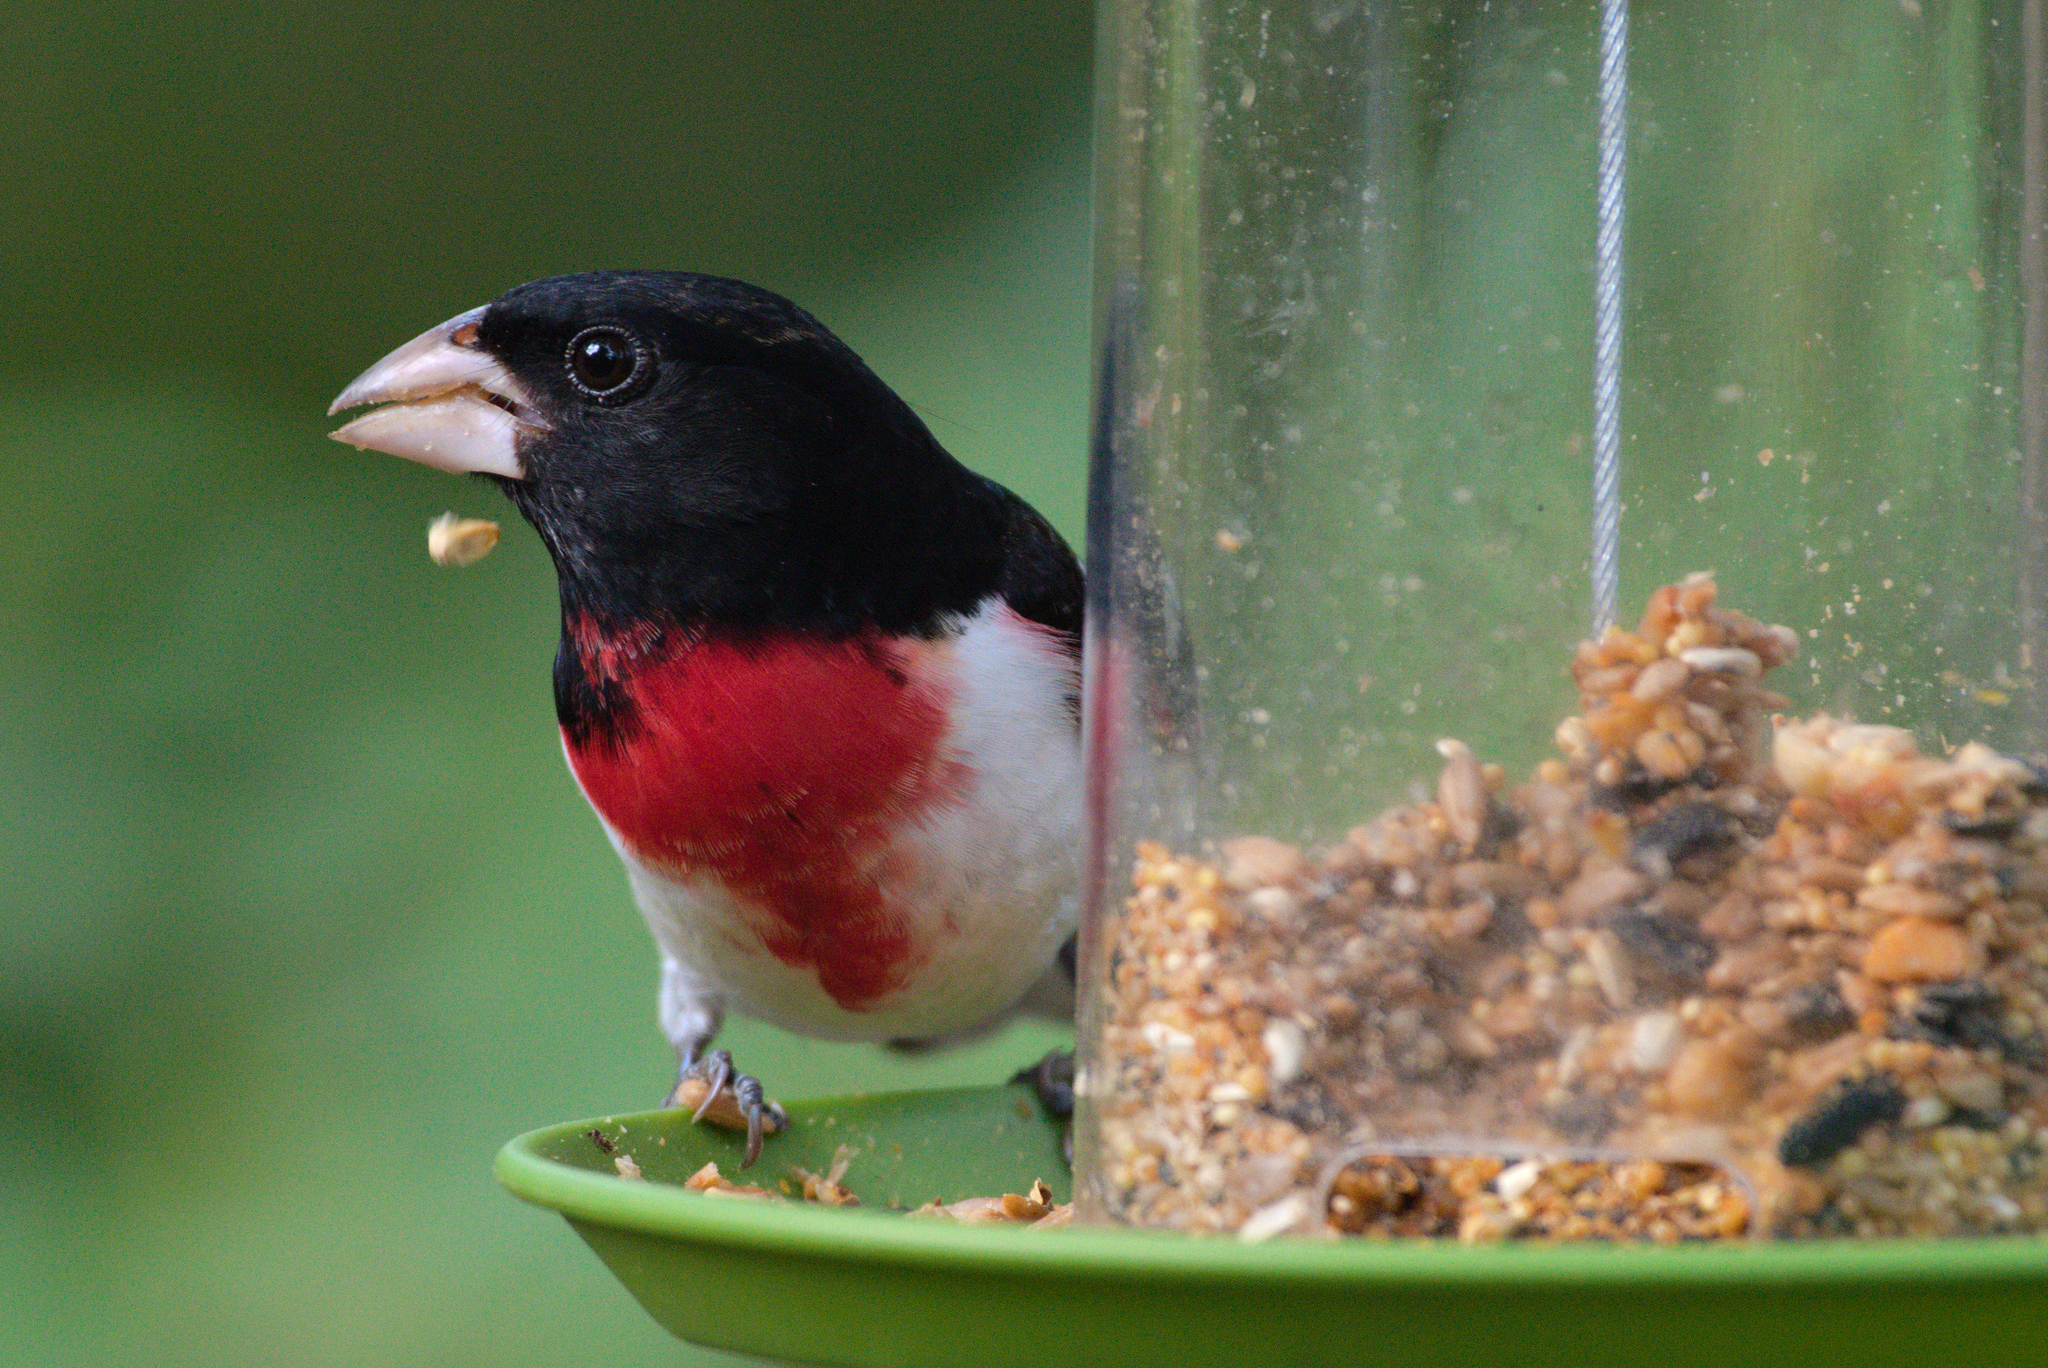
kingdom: Animalia
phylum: Chordata
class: Aves
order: Passeriformes
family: Cardinalidae
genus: Pheucticus
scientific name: Pheucticus ludovicianus
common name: Rose-breasted grosbeak
